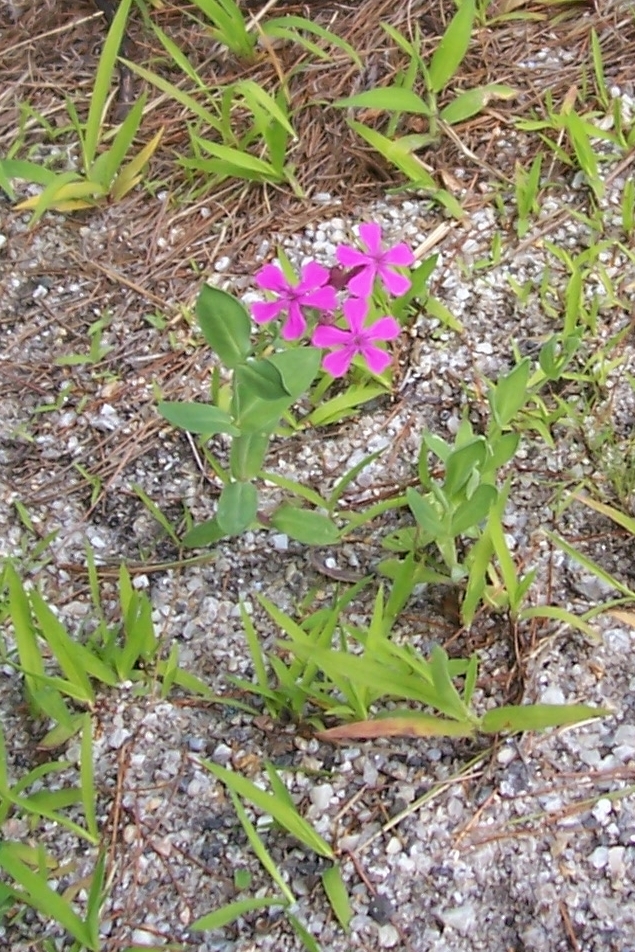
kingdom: Plantae
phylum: Tracheophyta
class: Magnoliopsida
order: Caryophyllales
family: Caryophyllaceae
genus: Atocion
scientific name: Atocion armeria
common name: Sweet william catchfly
